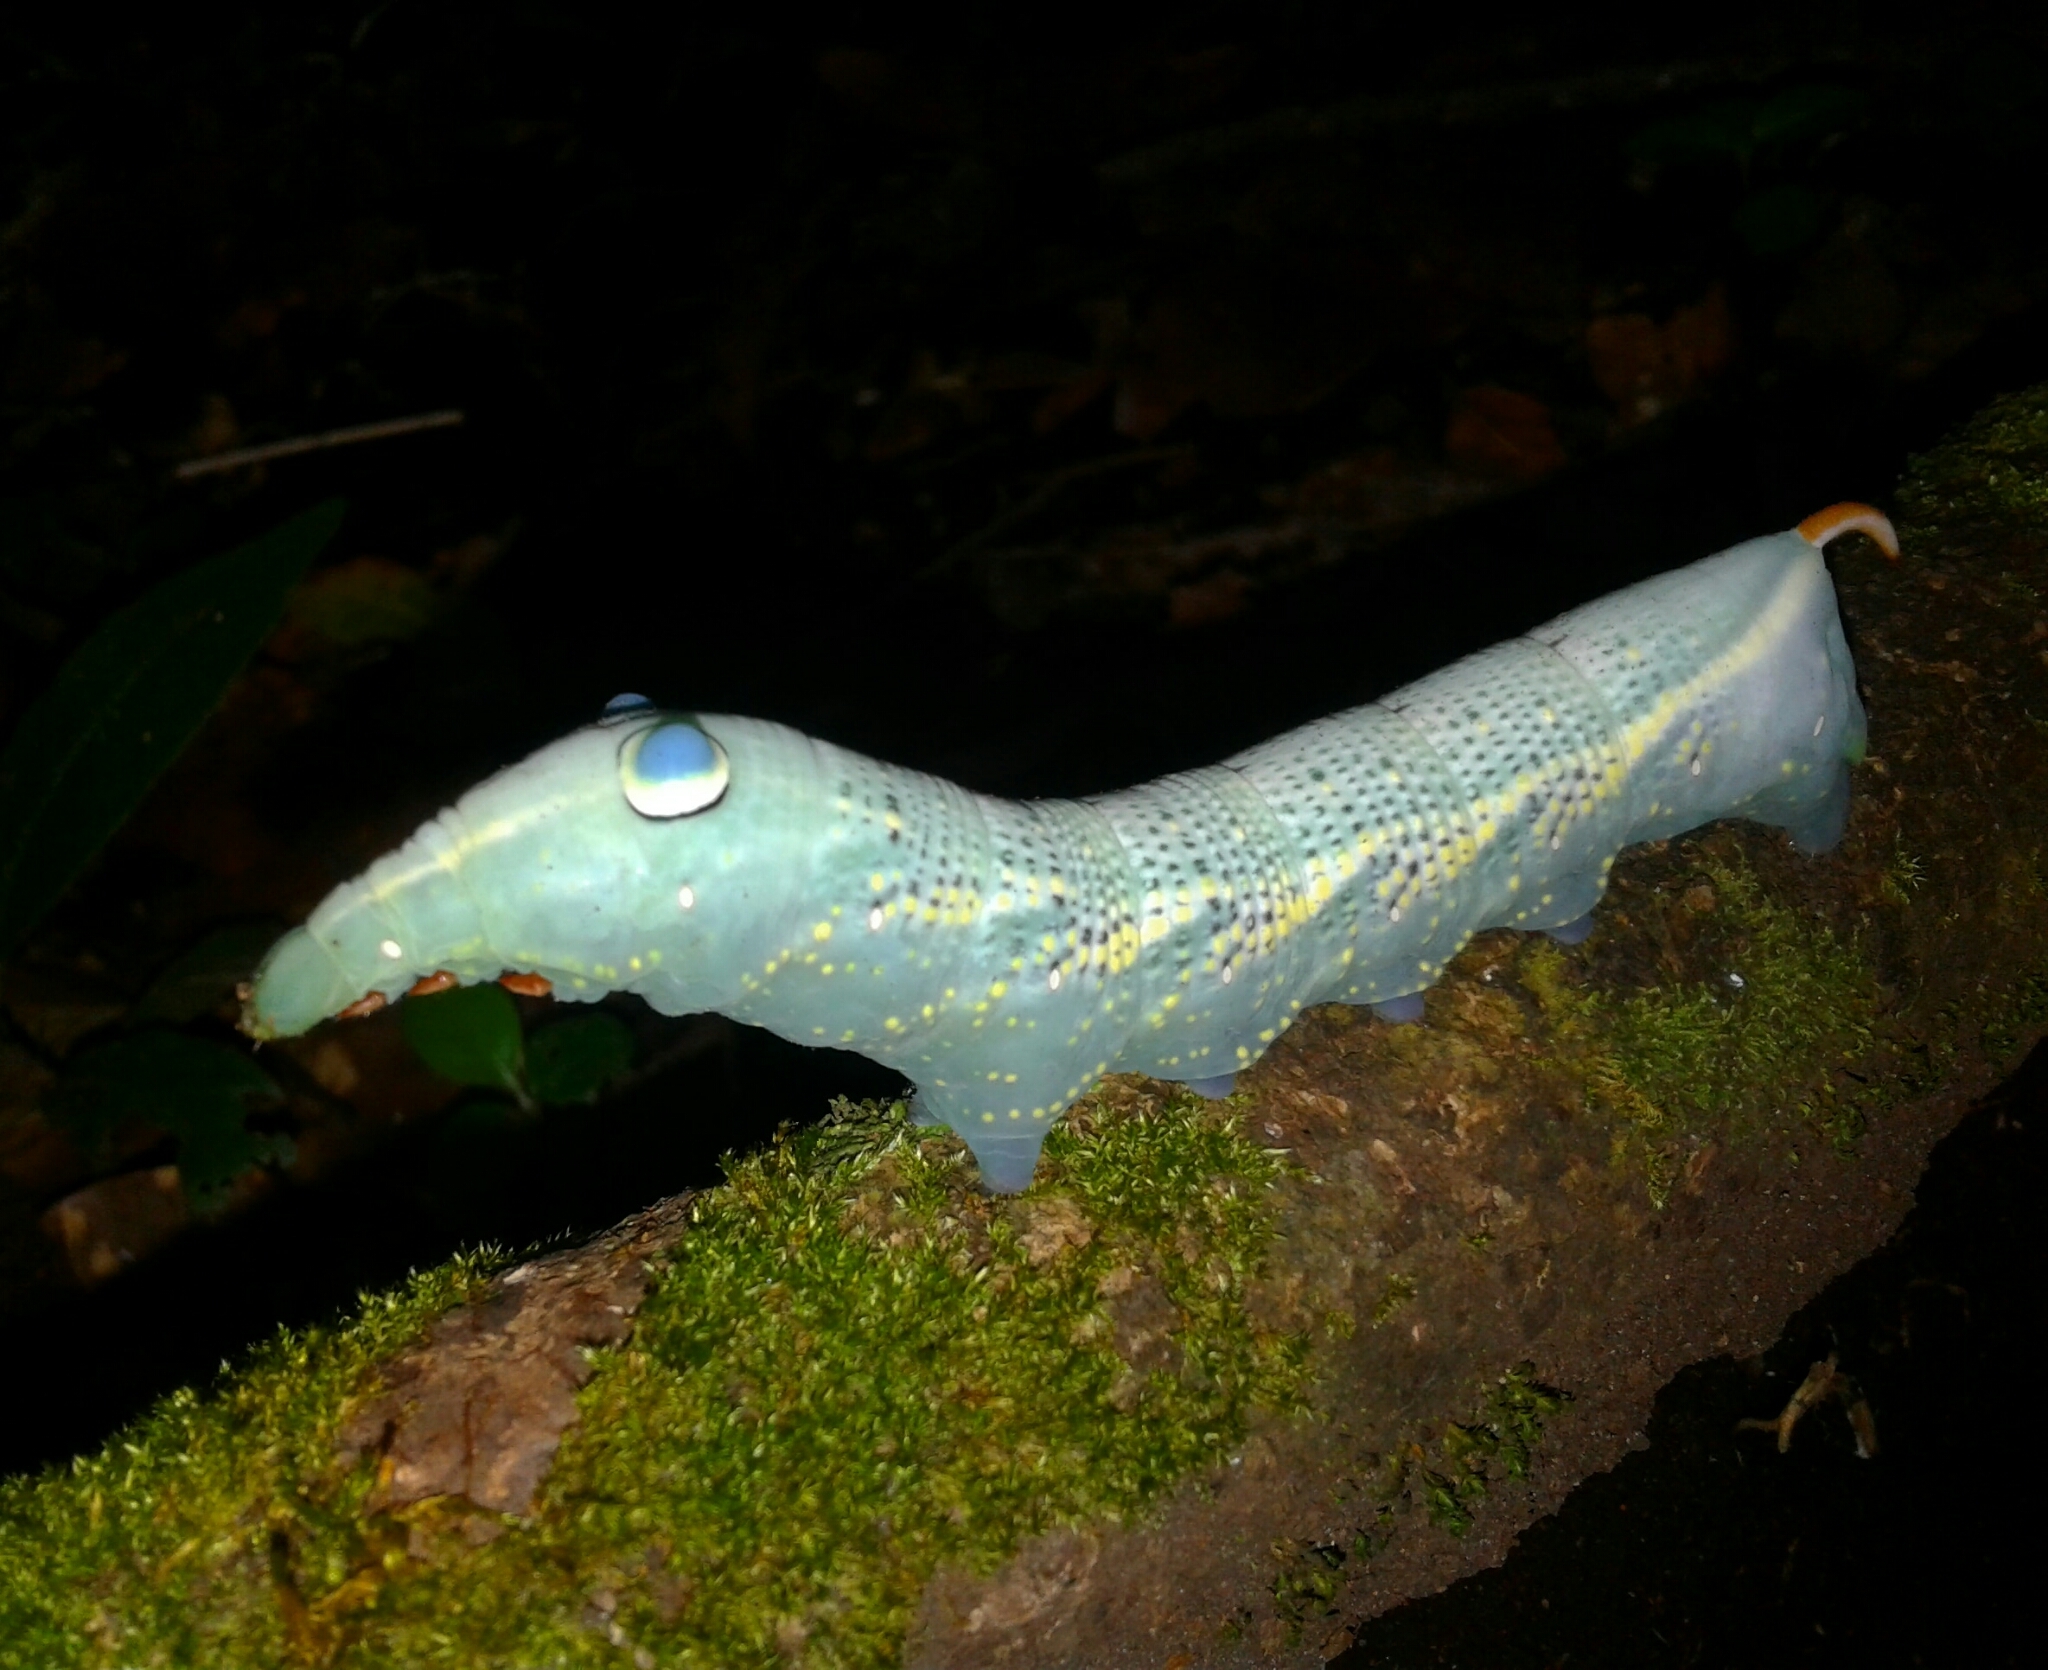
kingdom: Animalia
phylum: Arthropoda
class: Insecta
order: Lepidoptera
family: Sphingidae
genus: Xylophanes
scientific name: Xylophanes crotonis
